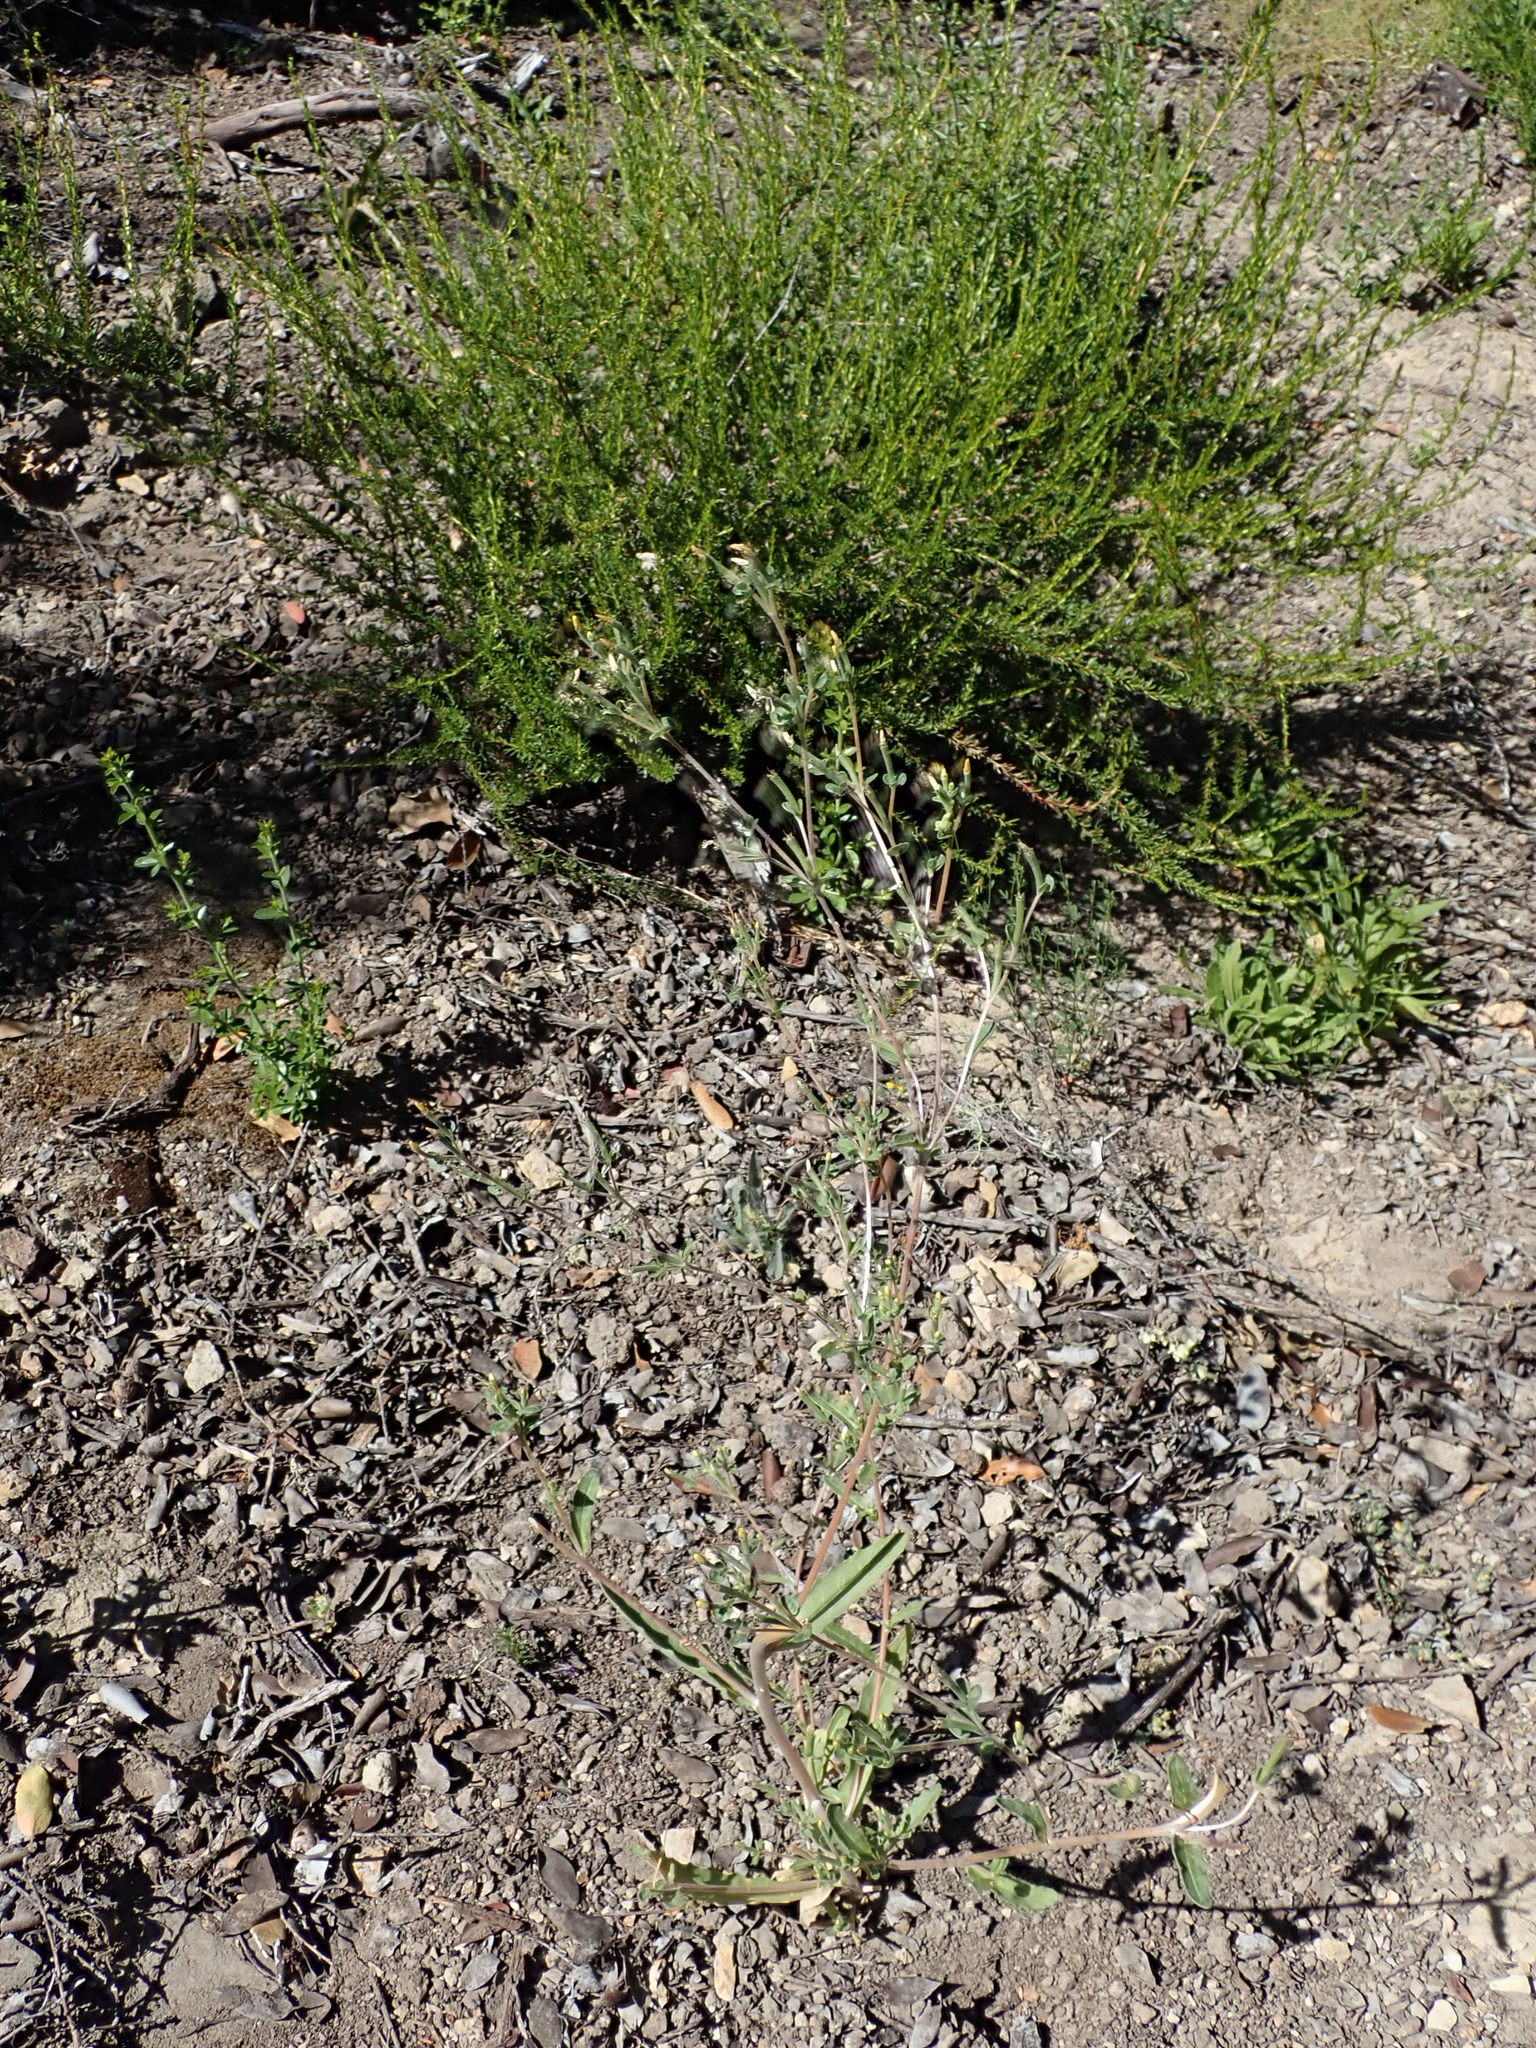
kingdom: Plantae
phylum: Tracheophyta
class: Magnoliopsida
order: Cornales
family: Loasaceae
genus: Mentzelia
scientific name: Mentzelia dispersa
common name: Nada stickleaf
